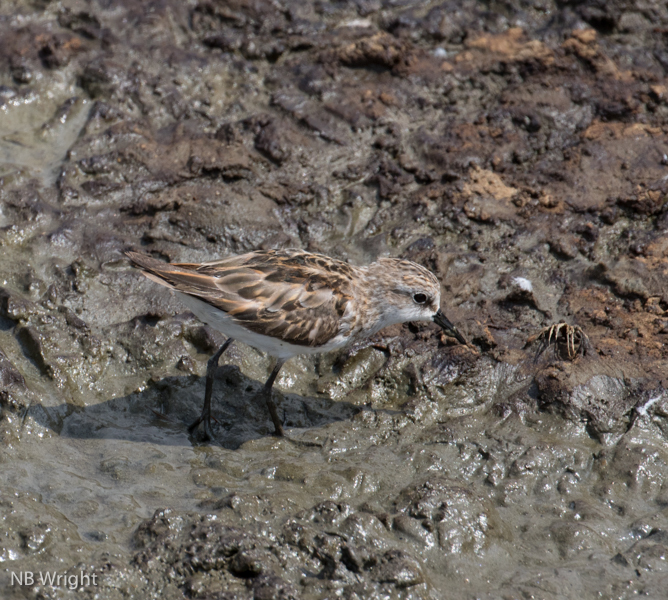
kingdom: Animalia
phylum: Chordata
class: Aves
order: Charadriiformes
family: Scolopacidae
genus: Calidris
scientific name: Calidris minuta
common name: Little stint
